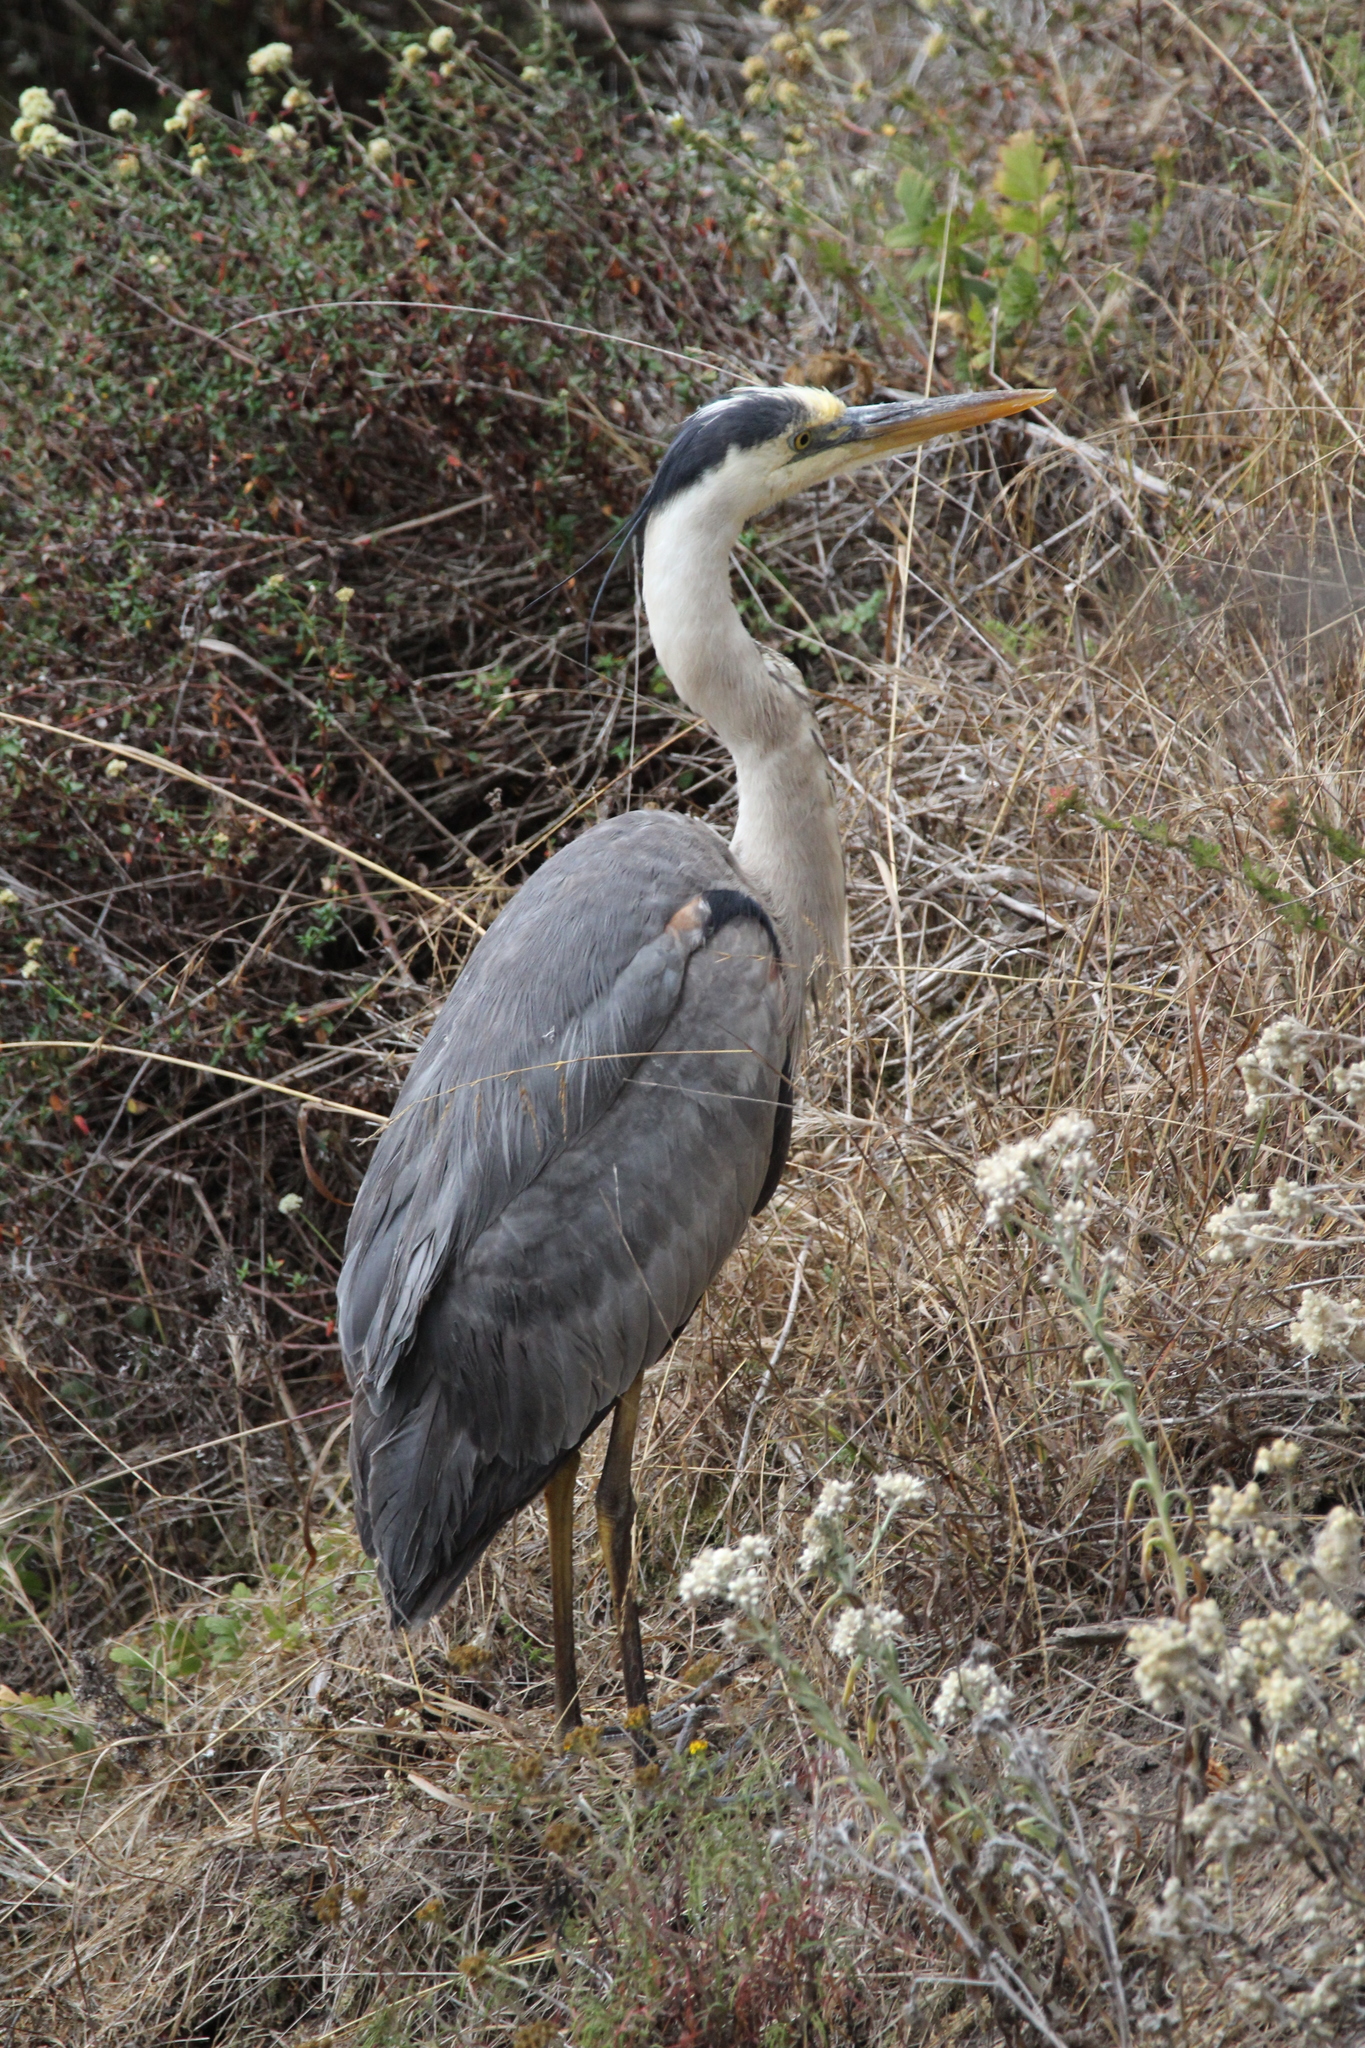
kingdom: Animalia
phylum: Chordata
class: Aves
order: Pelecaniformes
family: Ardeidae
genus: Ardea
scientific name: Ardea herodias
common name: Great blue heron
